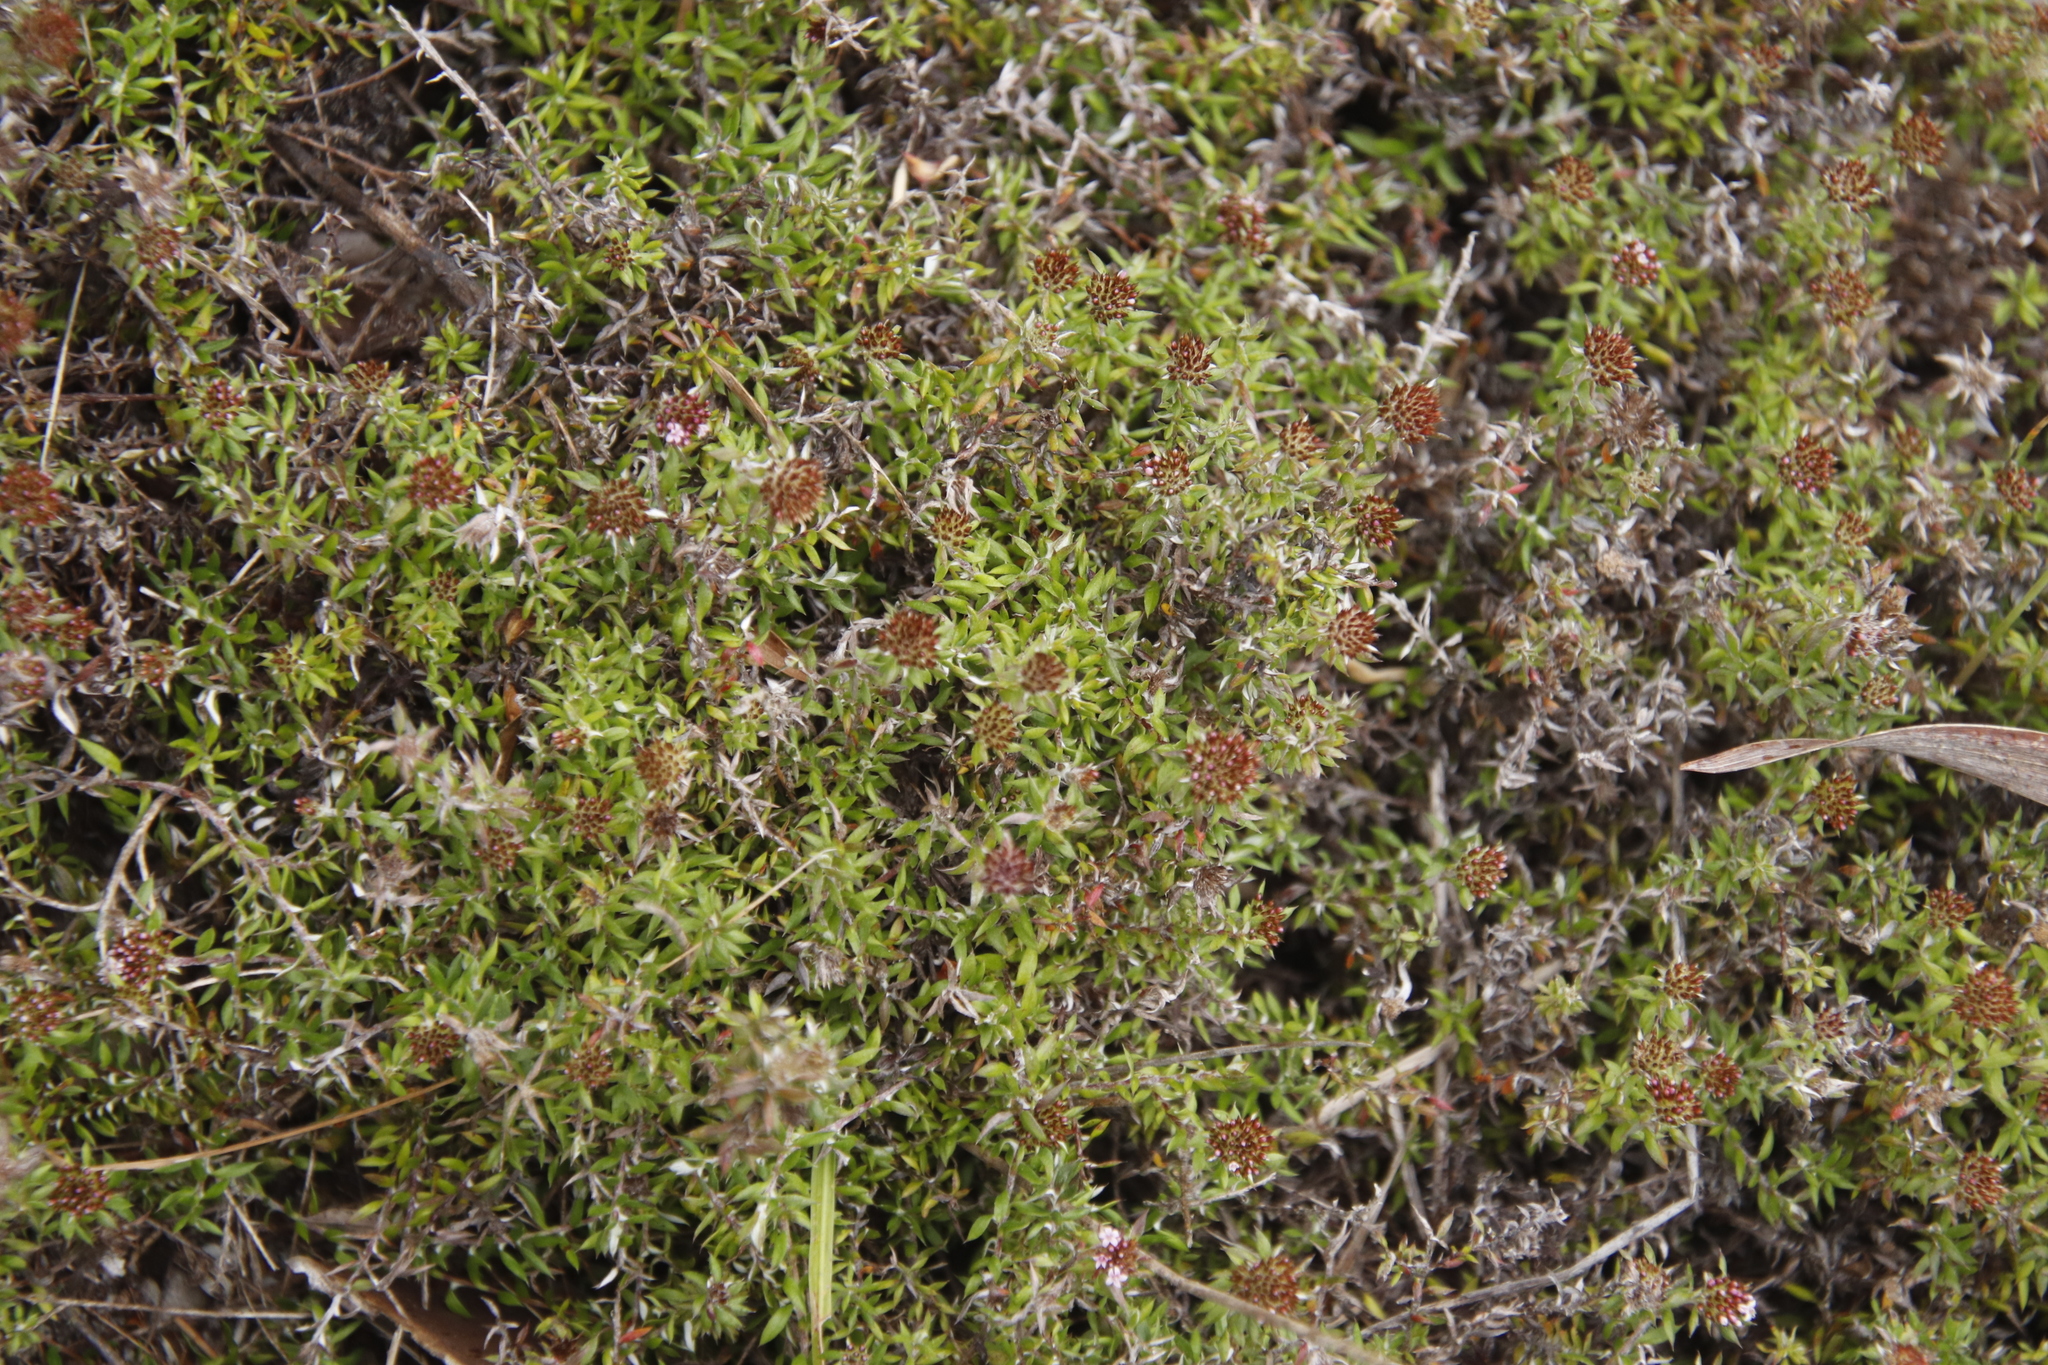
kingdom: Plantae
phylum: Tracheophyta
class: Magnoliopsida
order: Asterales
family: Asteraceae
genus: Stoebe
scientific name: Stoebe prostrata
